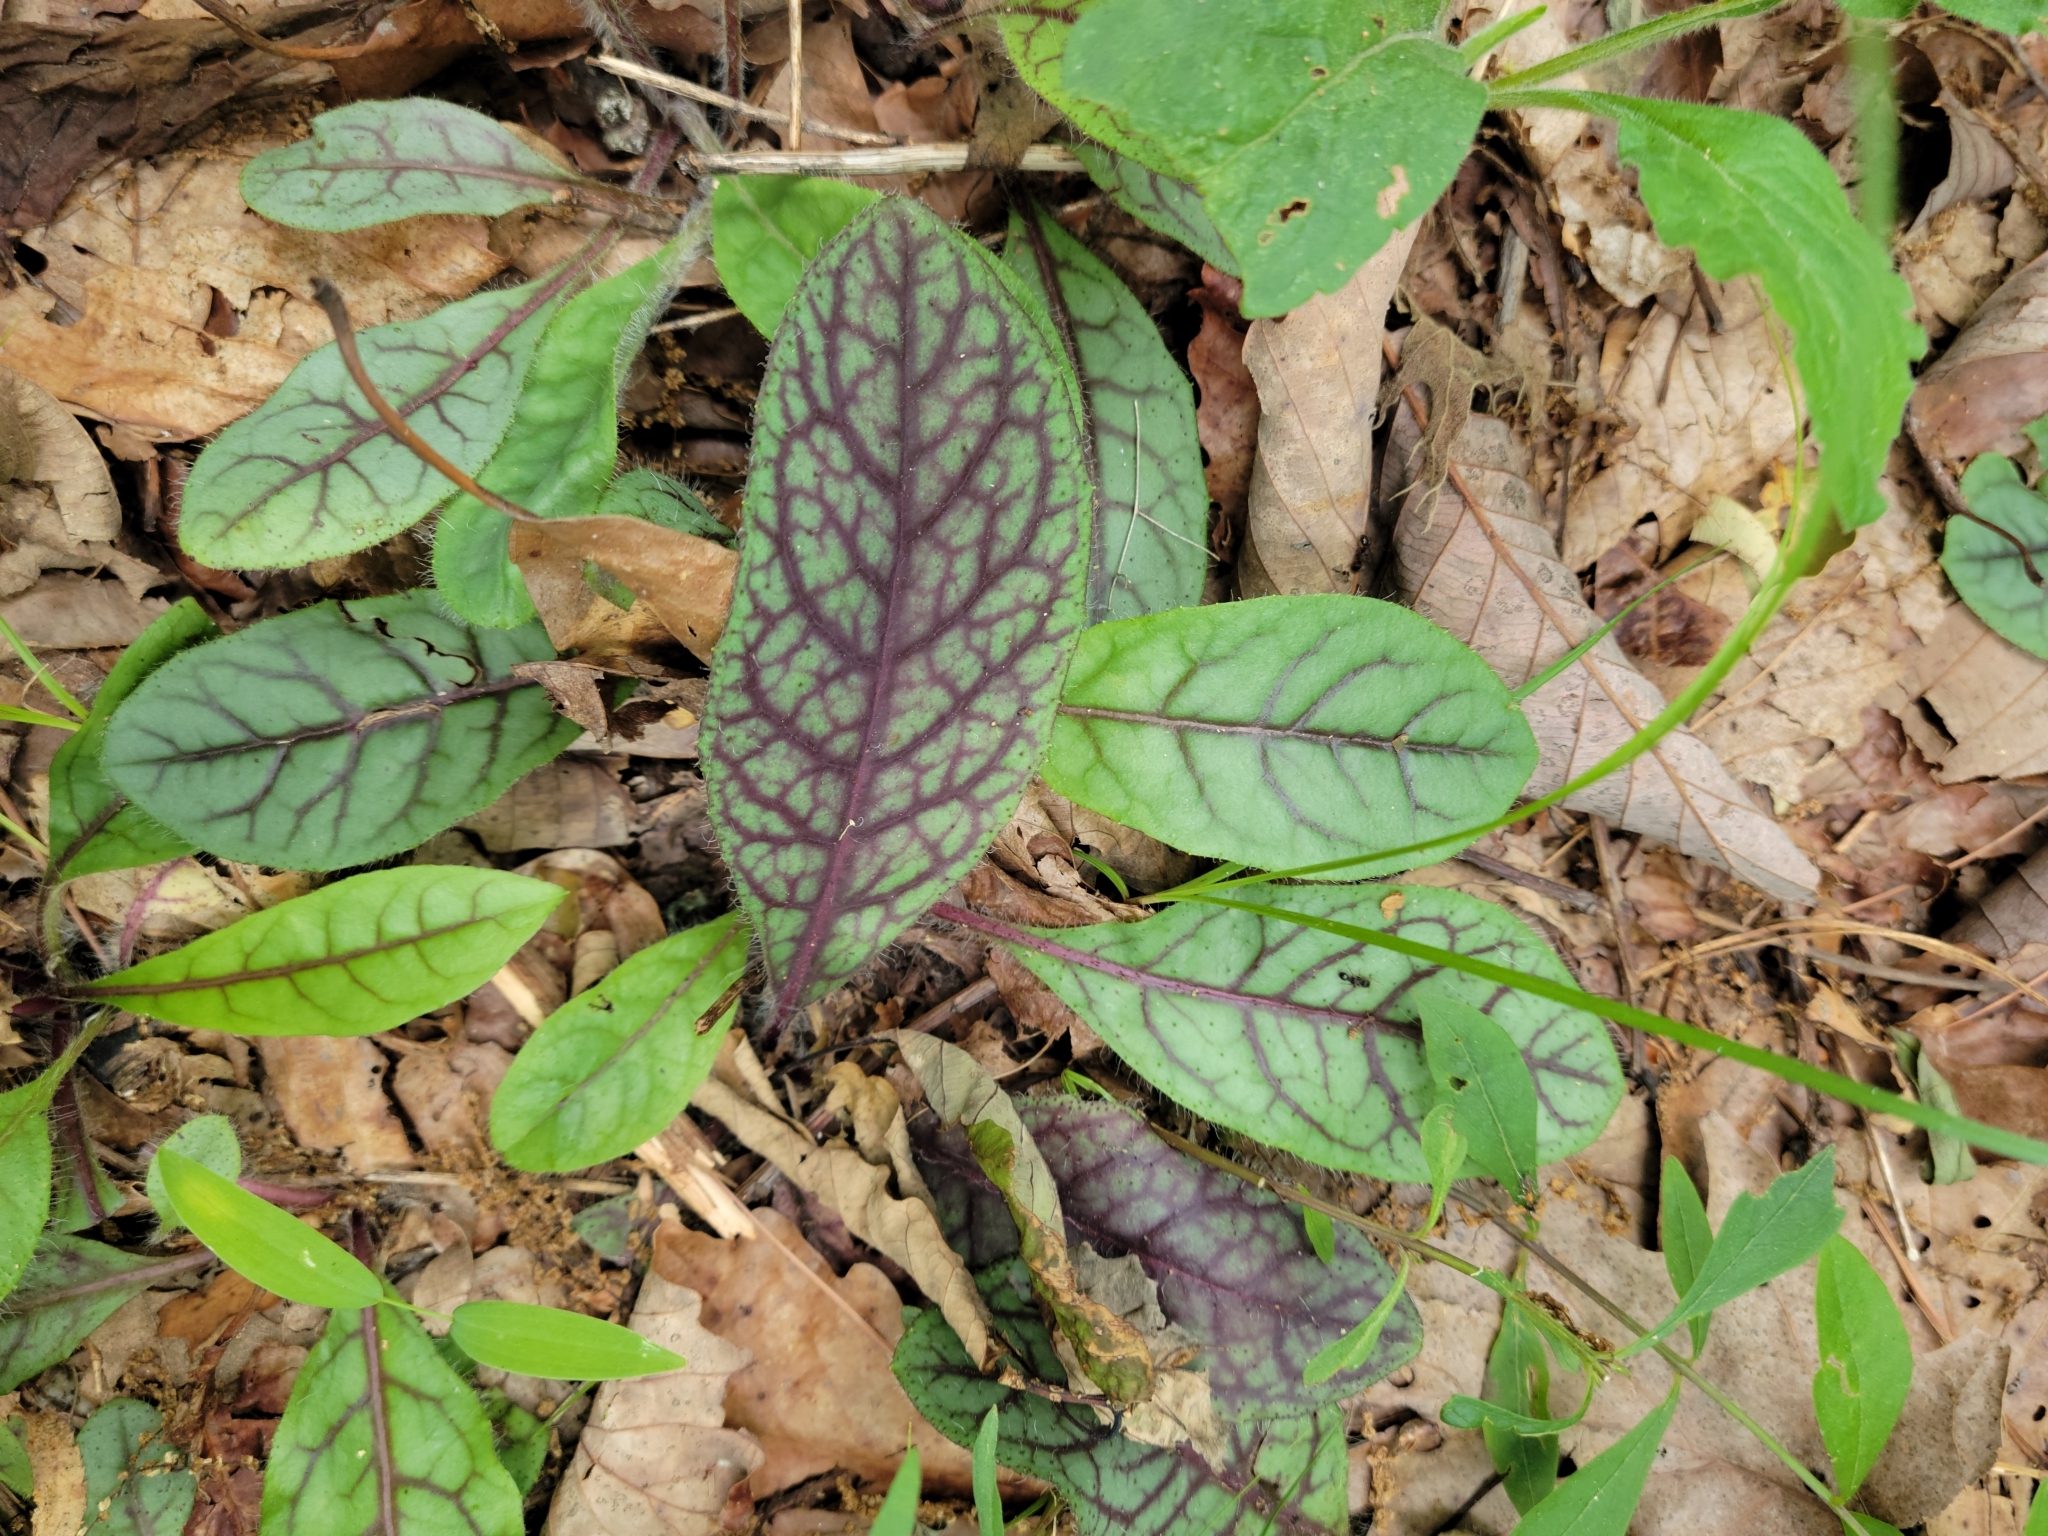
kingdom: Plantae
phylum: Tracheophyta
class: Magnoliopsida
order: Asterales
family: Asteraceae
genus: Hieracium
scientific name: Hieracium venosum
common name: Rattlesnake hawkweed
